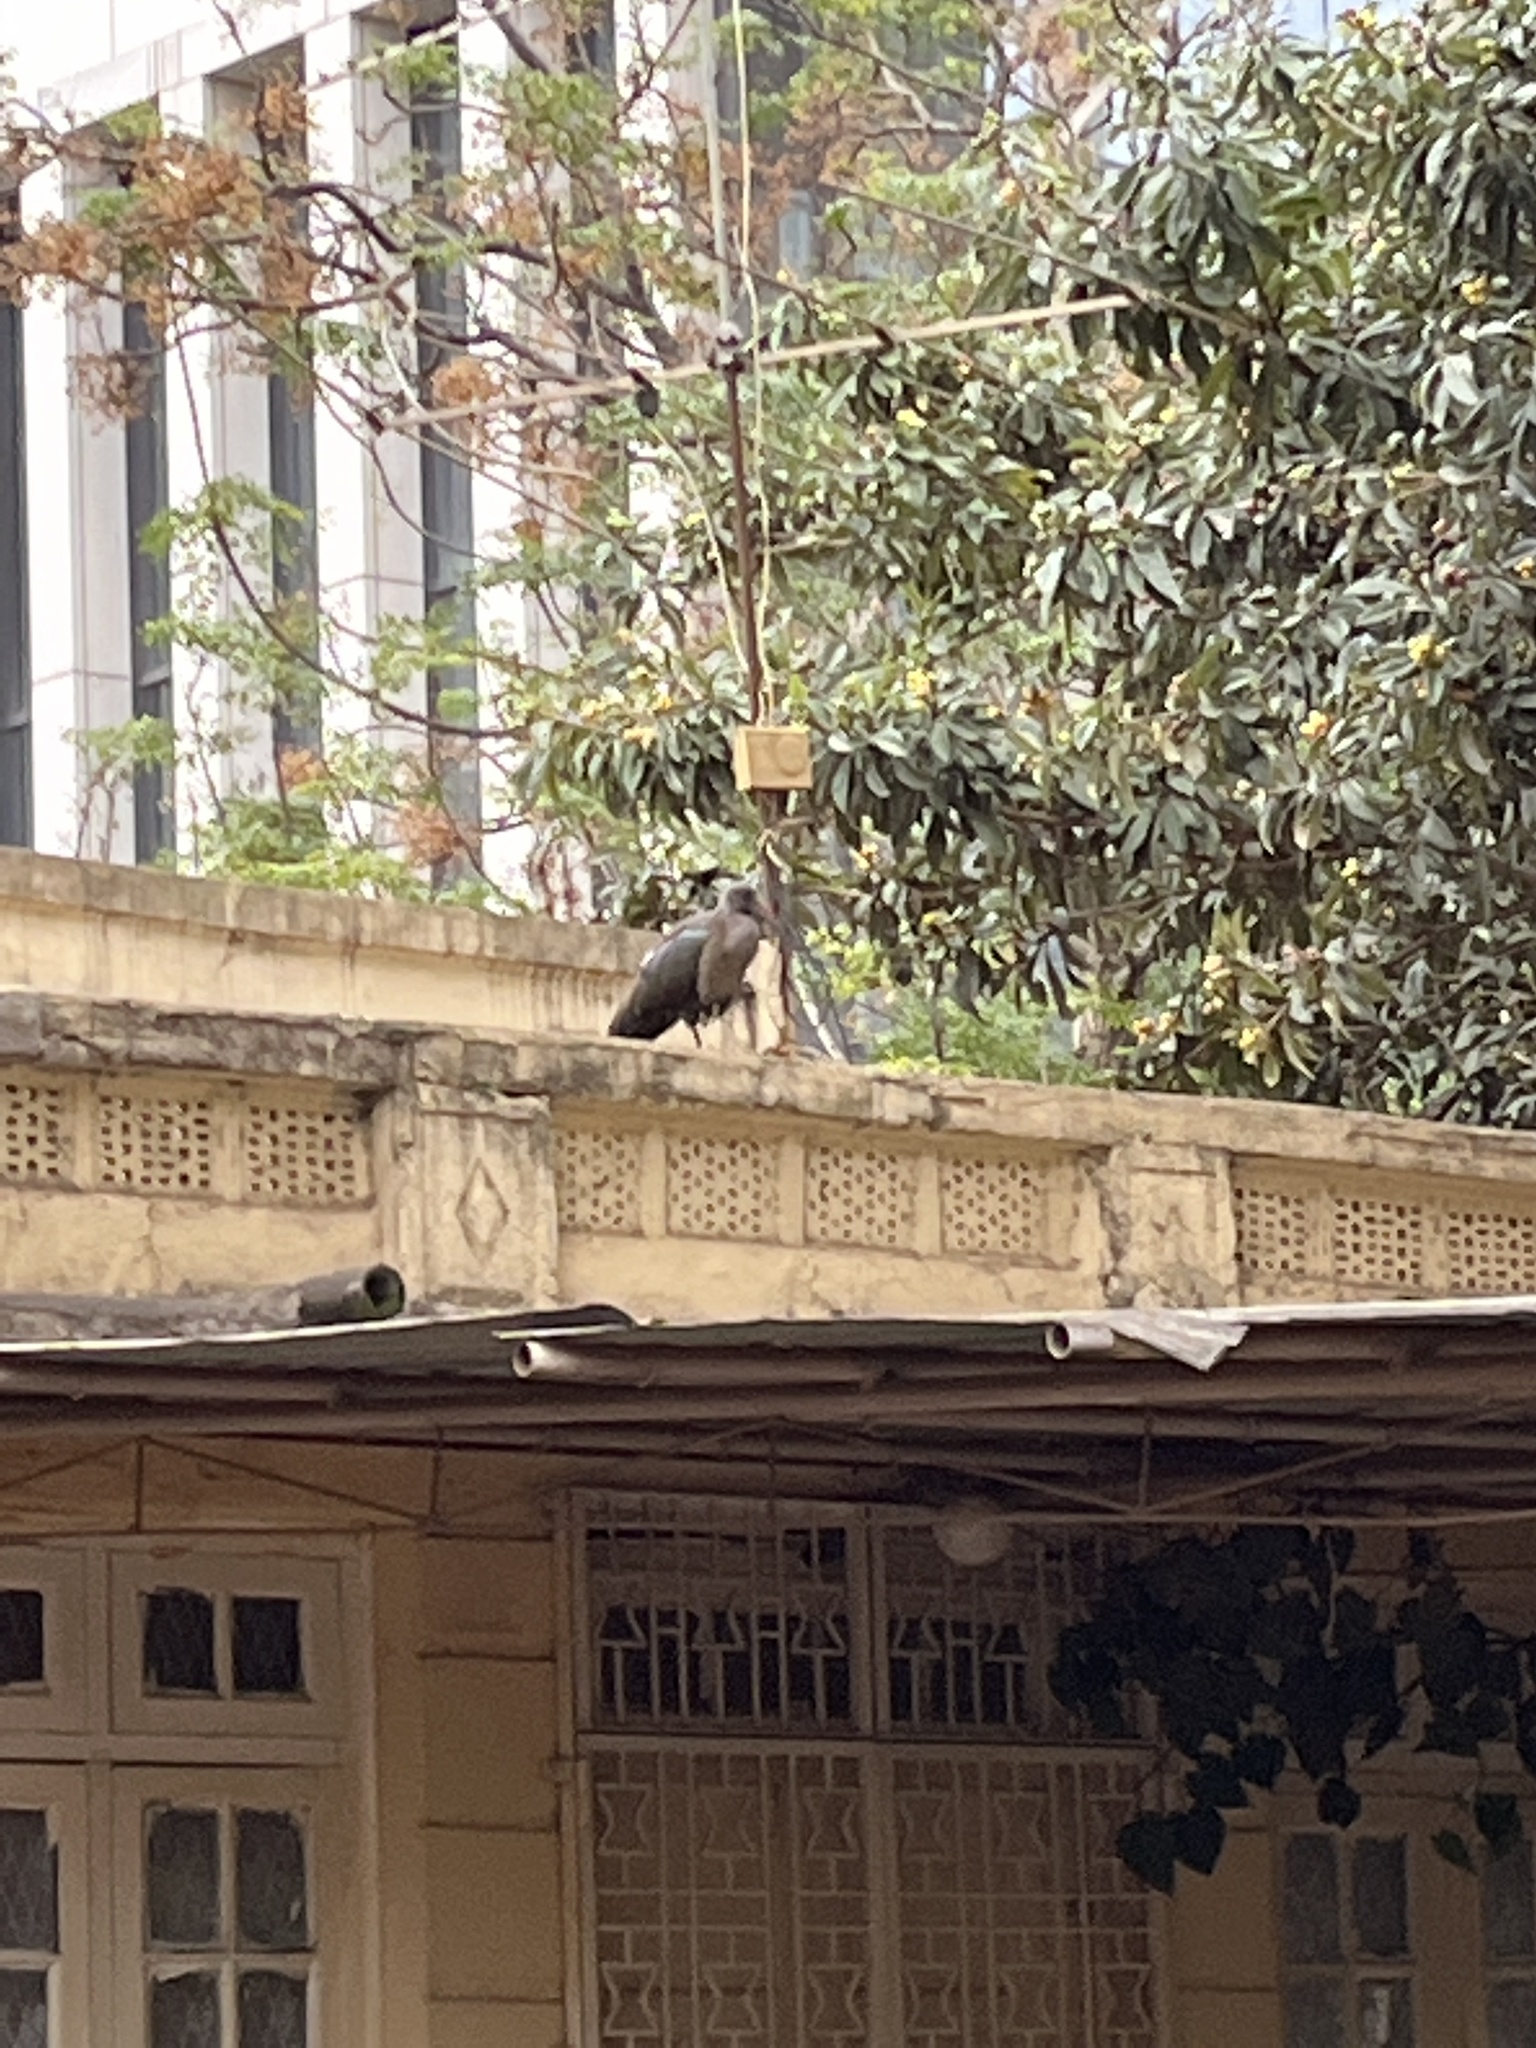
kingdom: Animalia
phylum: Chordata
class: Aves
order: Pelecaniformes
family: Threskiornithidae
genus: Bostrychia
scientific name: Bostrychia hagedash
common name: Hadada ibis
